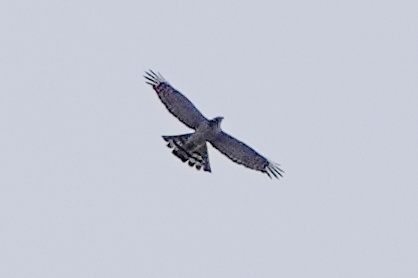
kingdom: Animalia
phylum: Chordata
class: Aves
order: Accipitriformes
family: Accipitridae
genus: Accipiter
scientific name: Accipiter nisus
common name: Eurasian sparrowhawk
